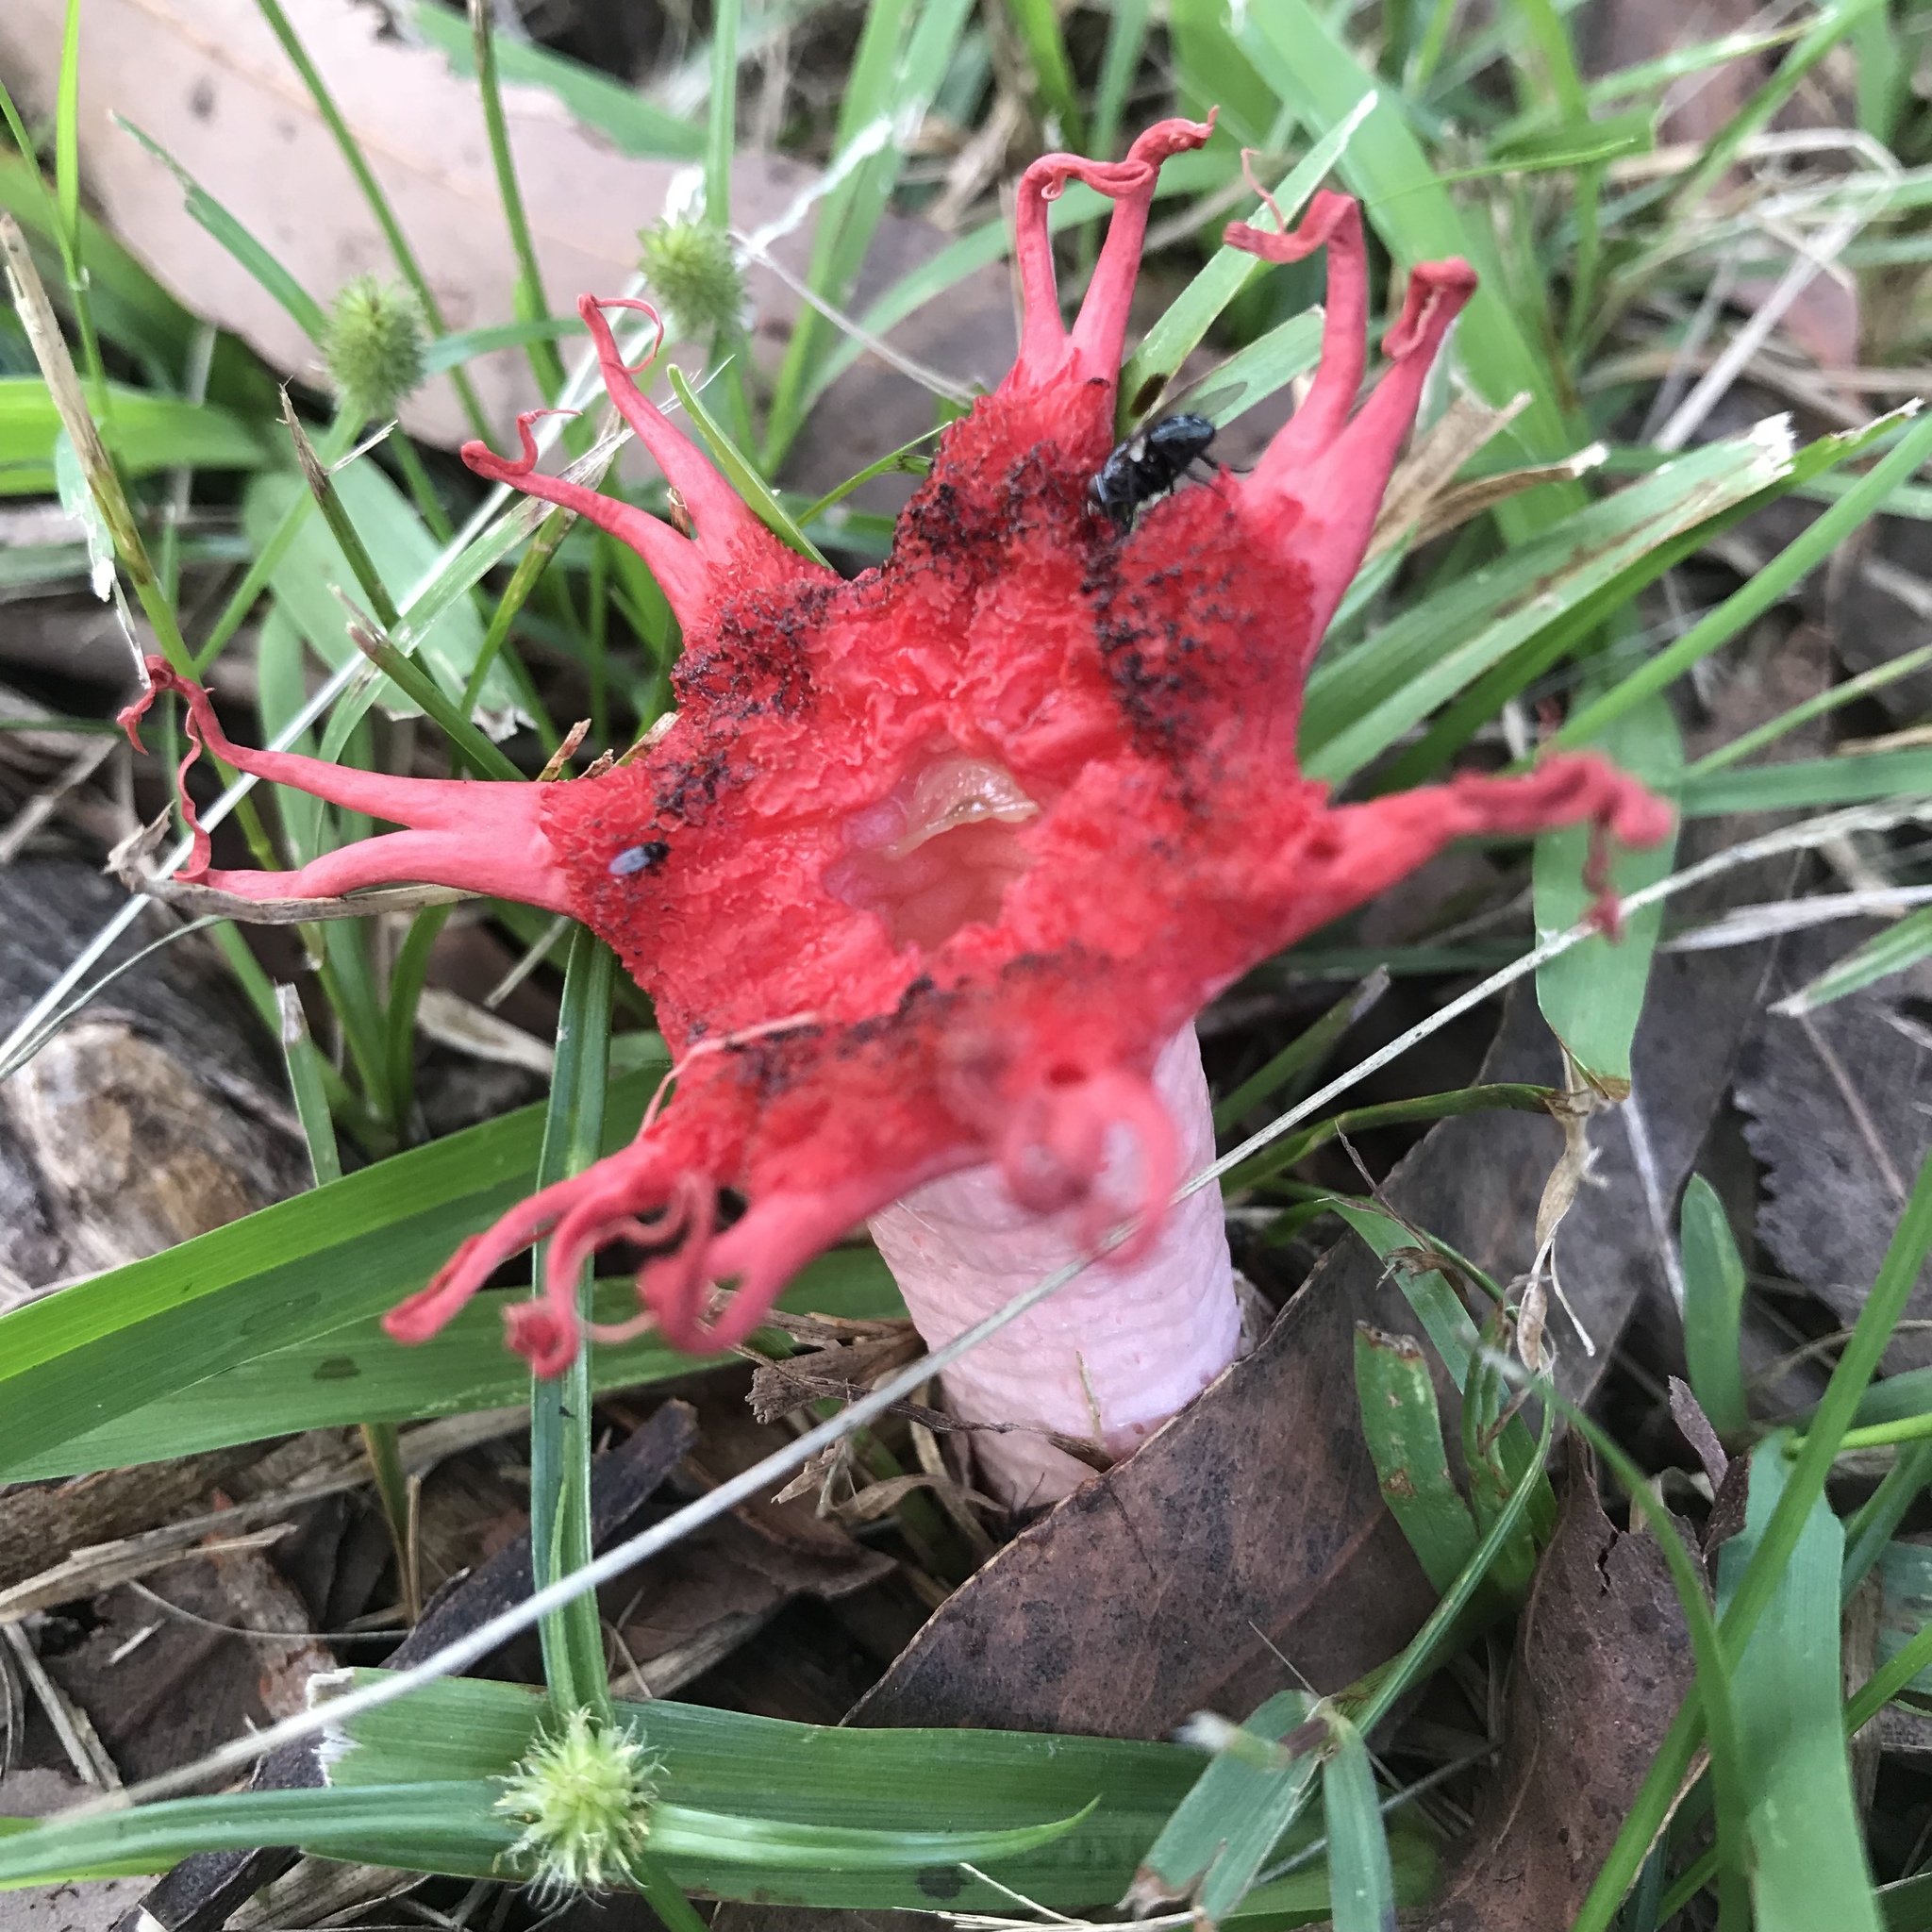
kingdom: Fungi
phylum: Basidiomycota
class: Agaricomycetes
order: Phallales
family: Phallaceae
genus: Aseroe
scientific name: Aseroe rubra
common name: Starfish fungus
